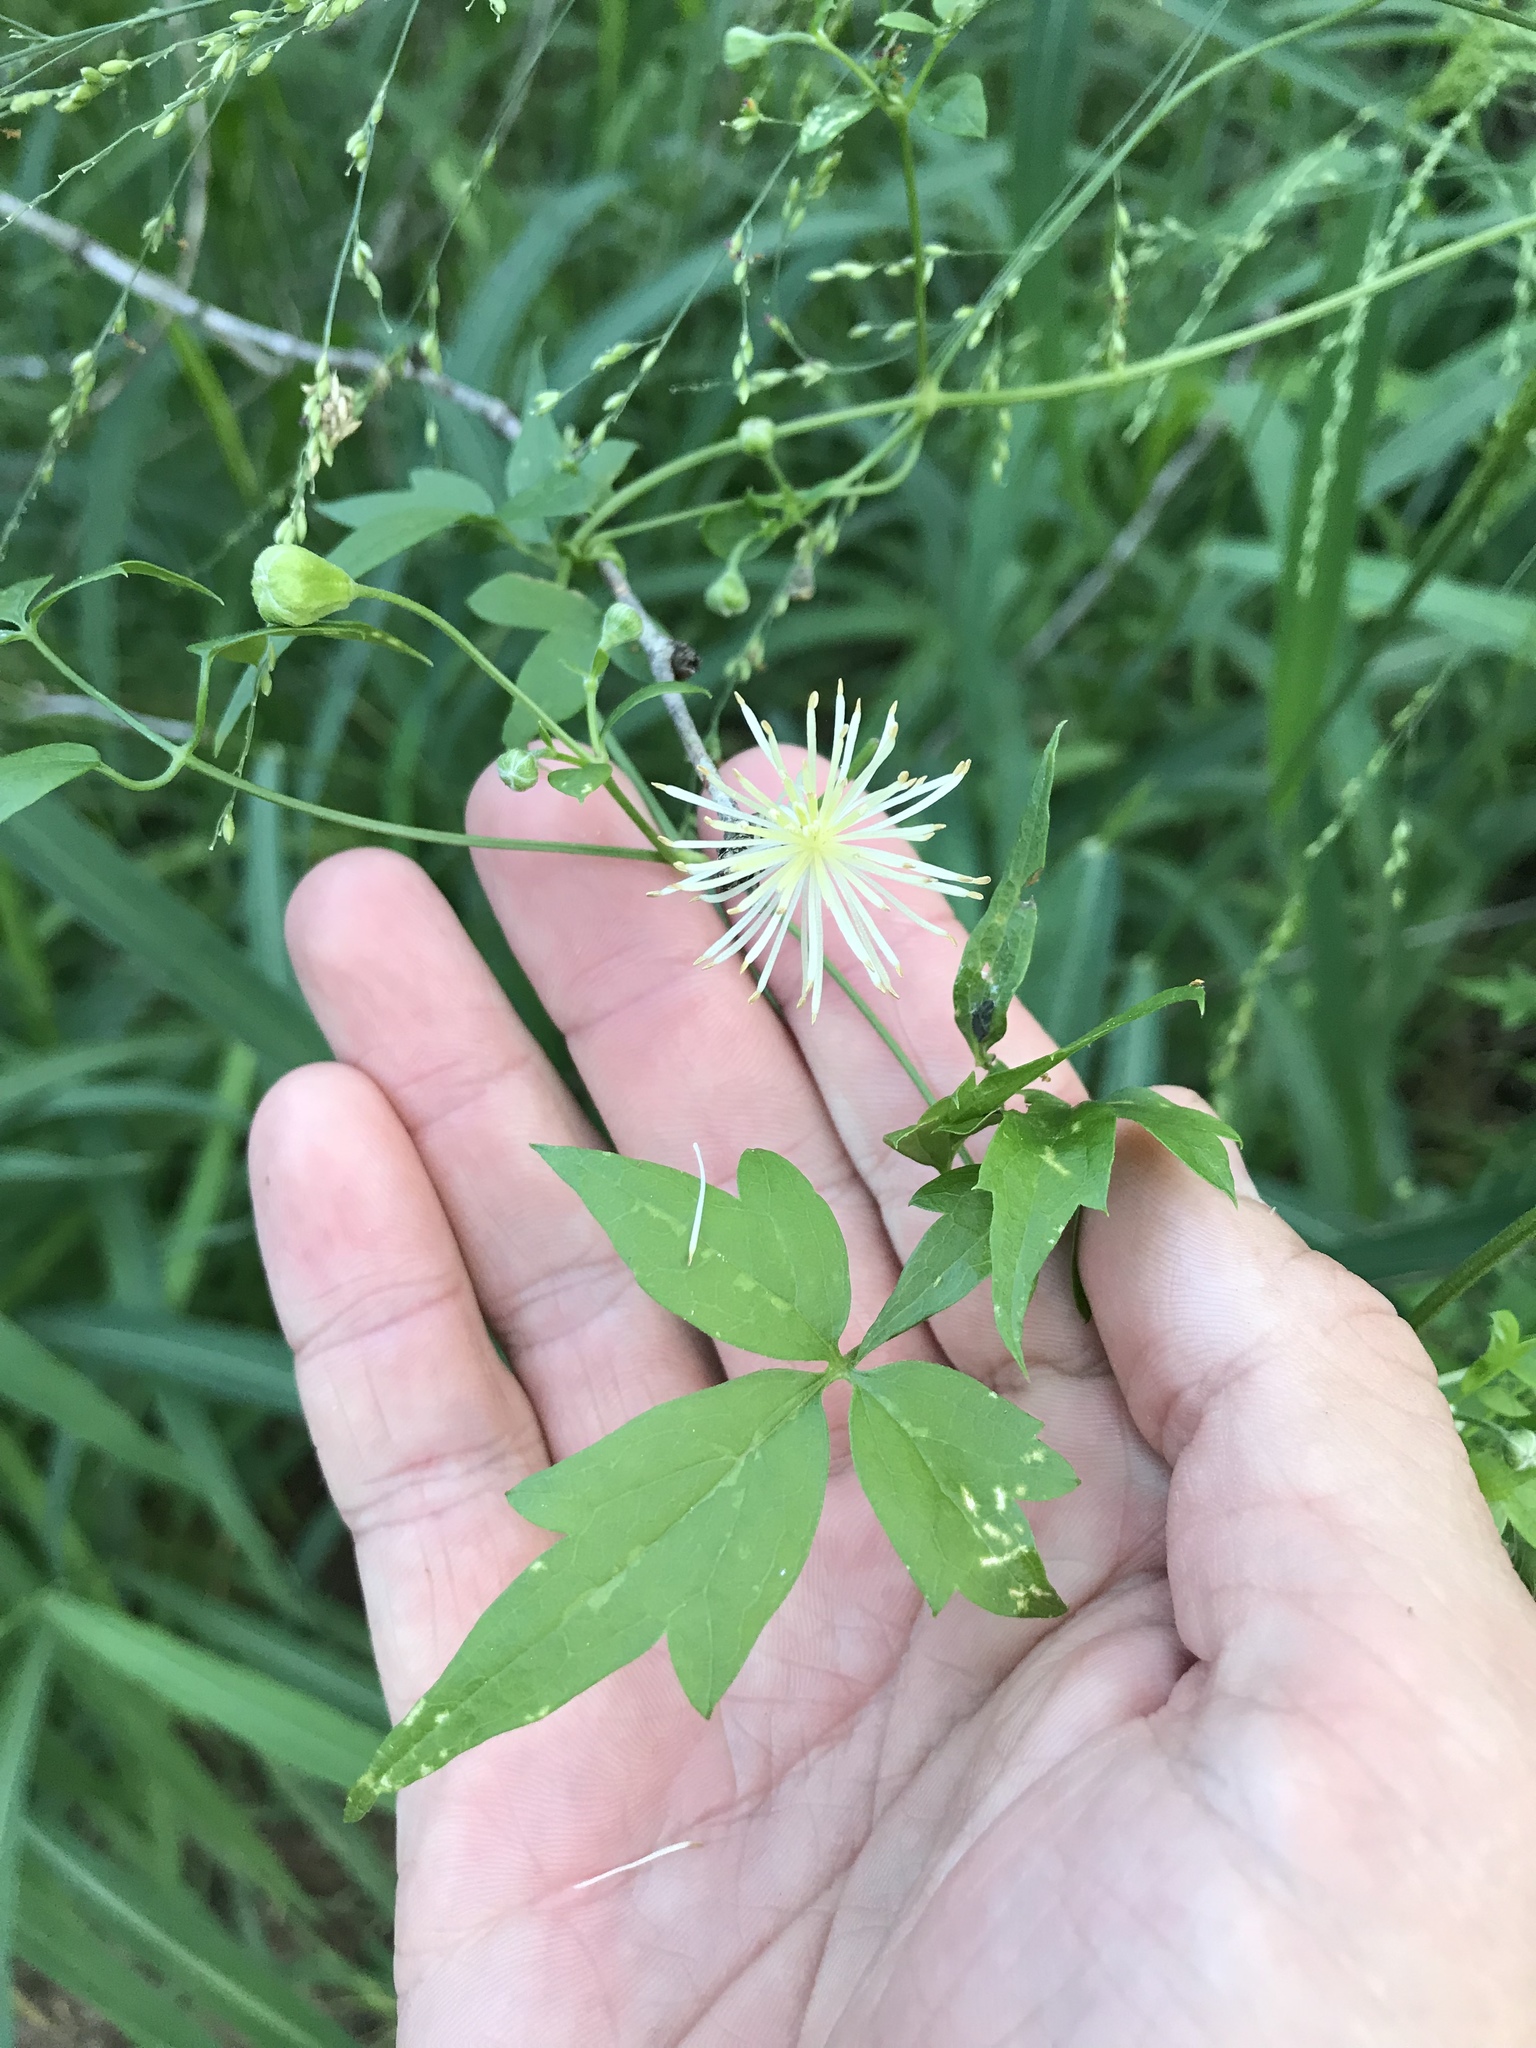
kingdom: Plantae
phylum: Tracheophyta
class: Magnoliopsida
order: Ranunculales
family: Ranunculaceae
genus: Clematis
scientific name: Clematis drummondii
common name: Texas virgin's bower
